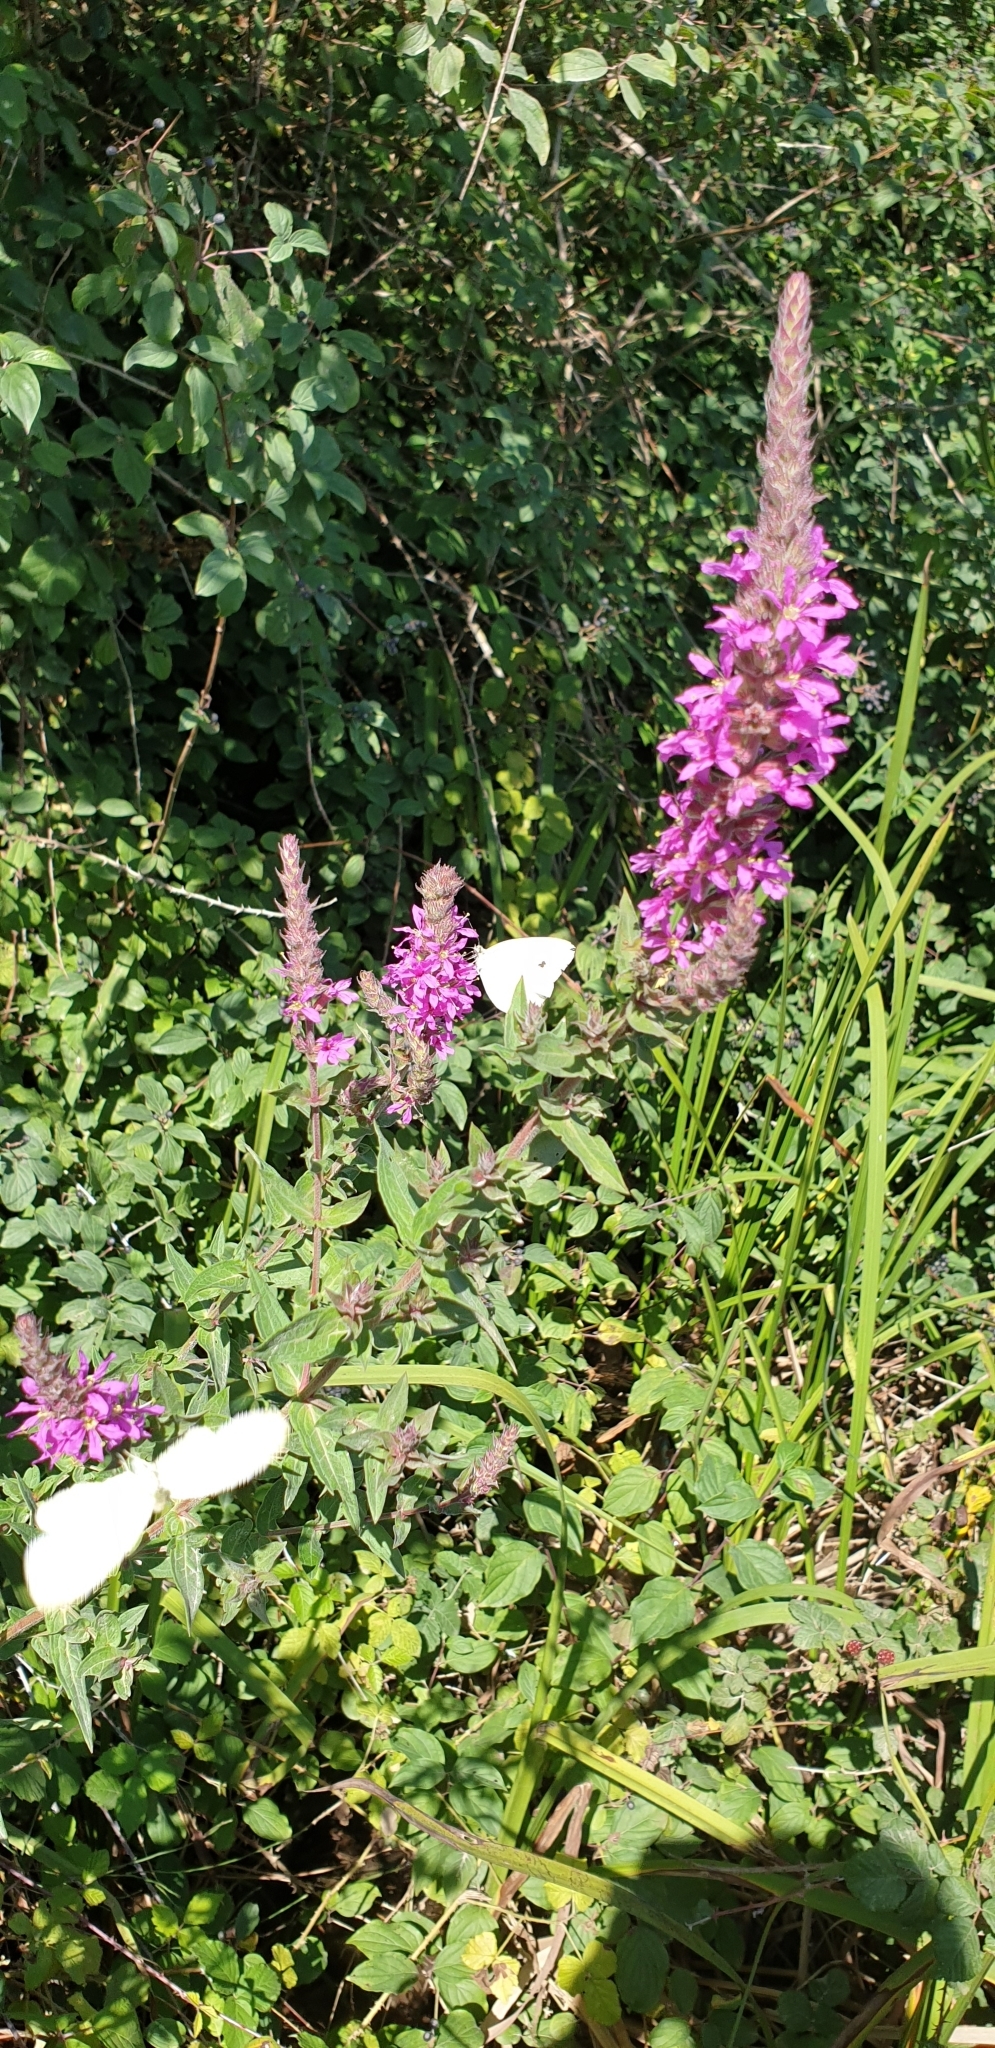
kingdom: Animalia
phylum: Arthropoda
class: Insecta
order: Lepidoptera
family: Pieridae
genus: Pieris
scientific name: Pieris rapae
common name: Small white
